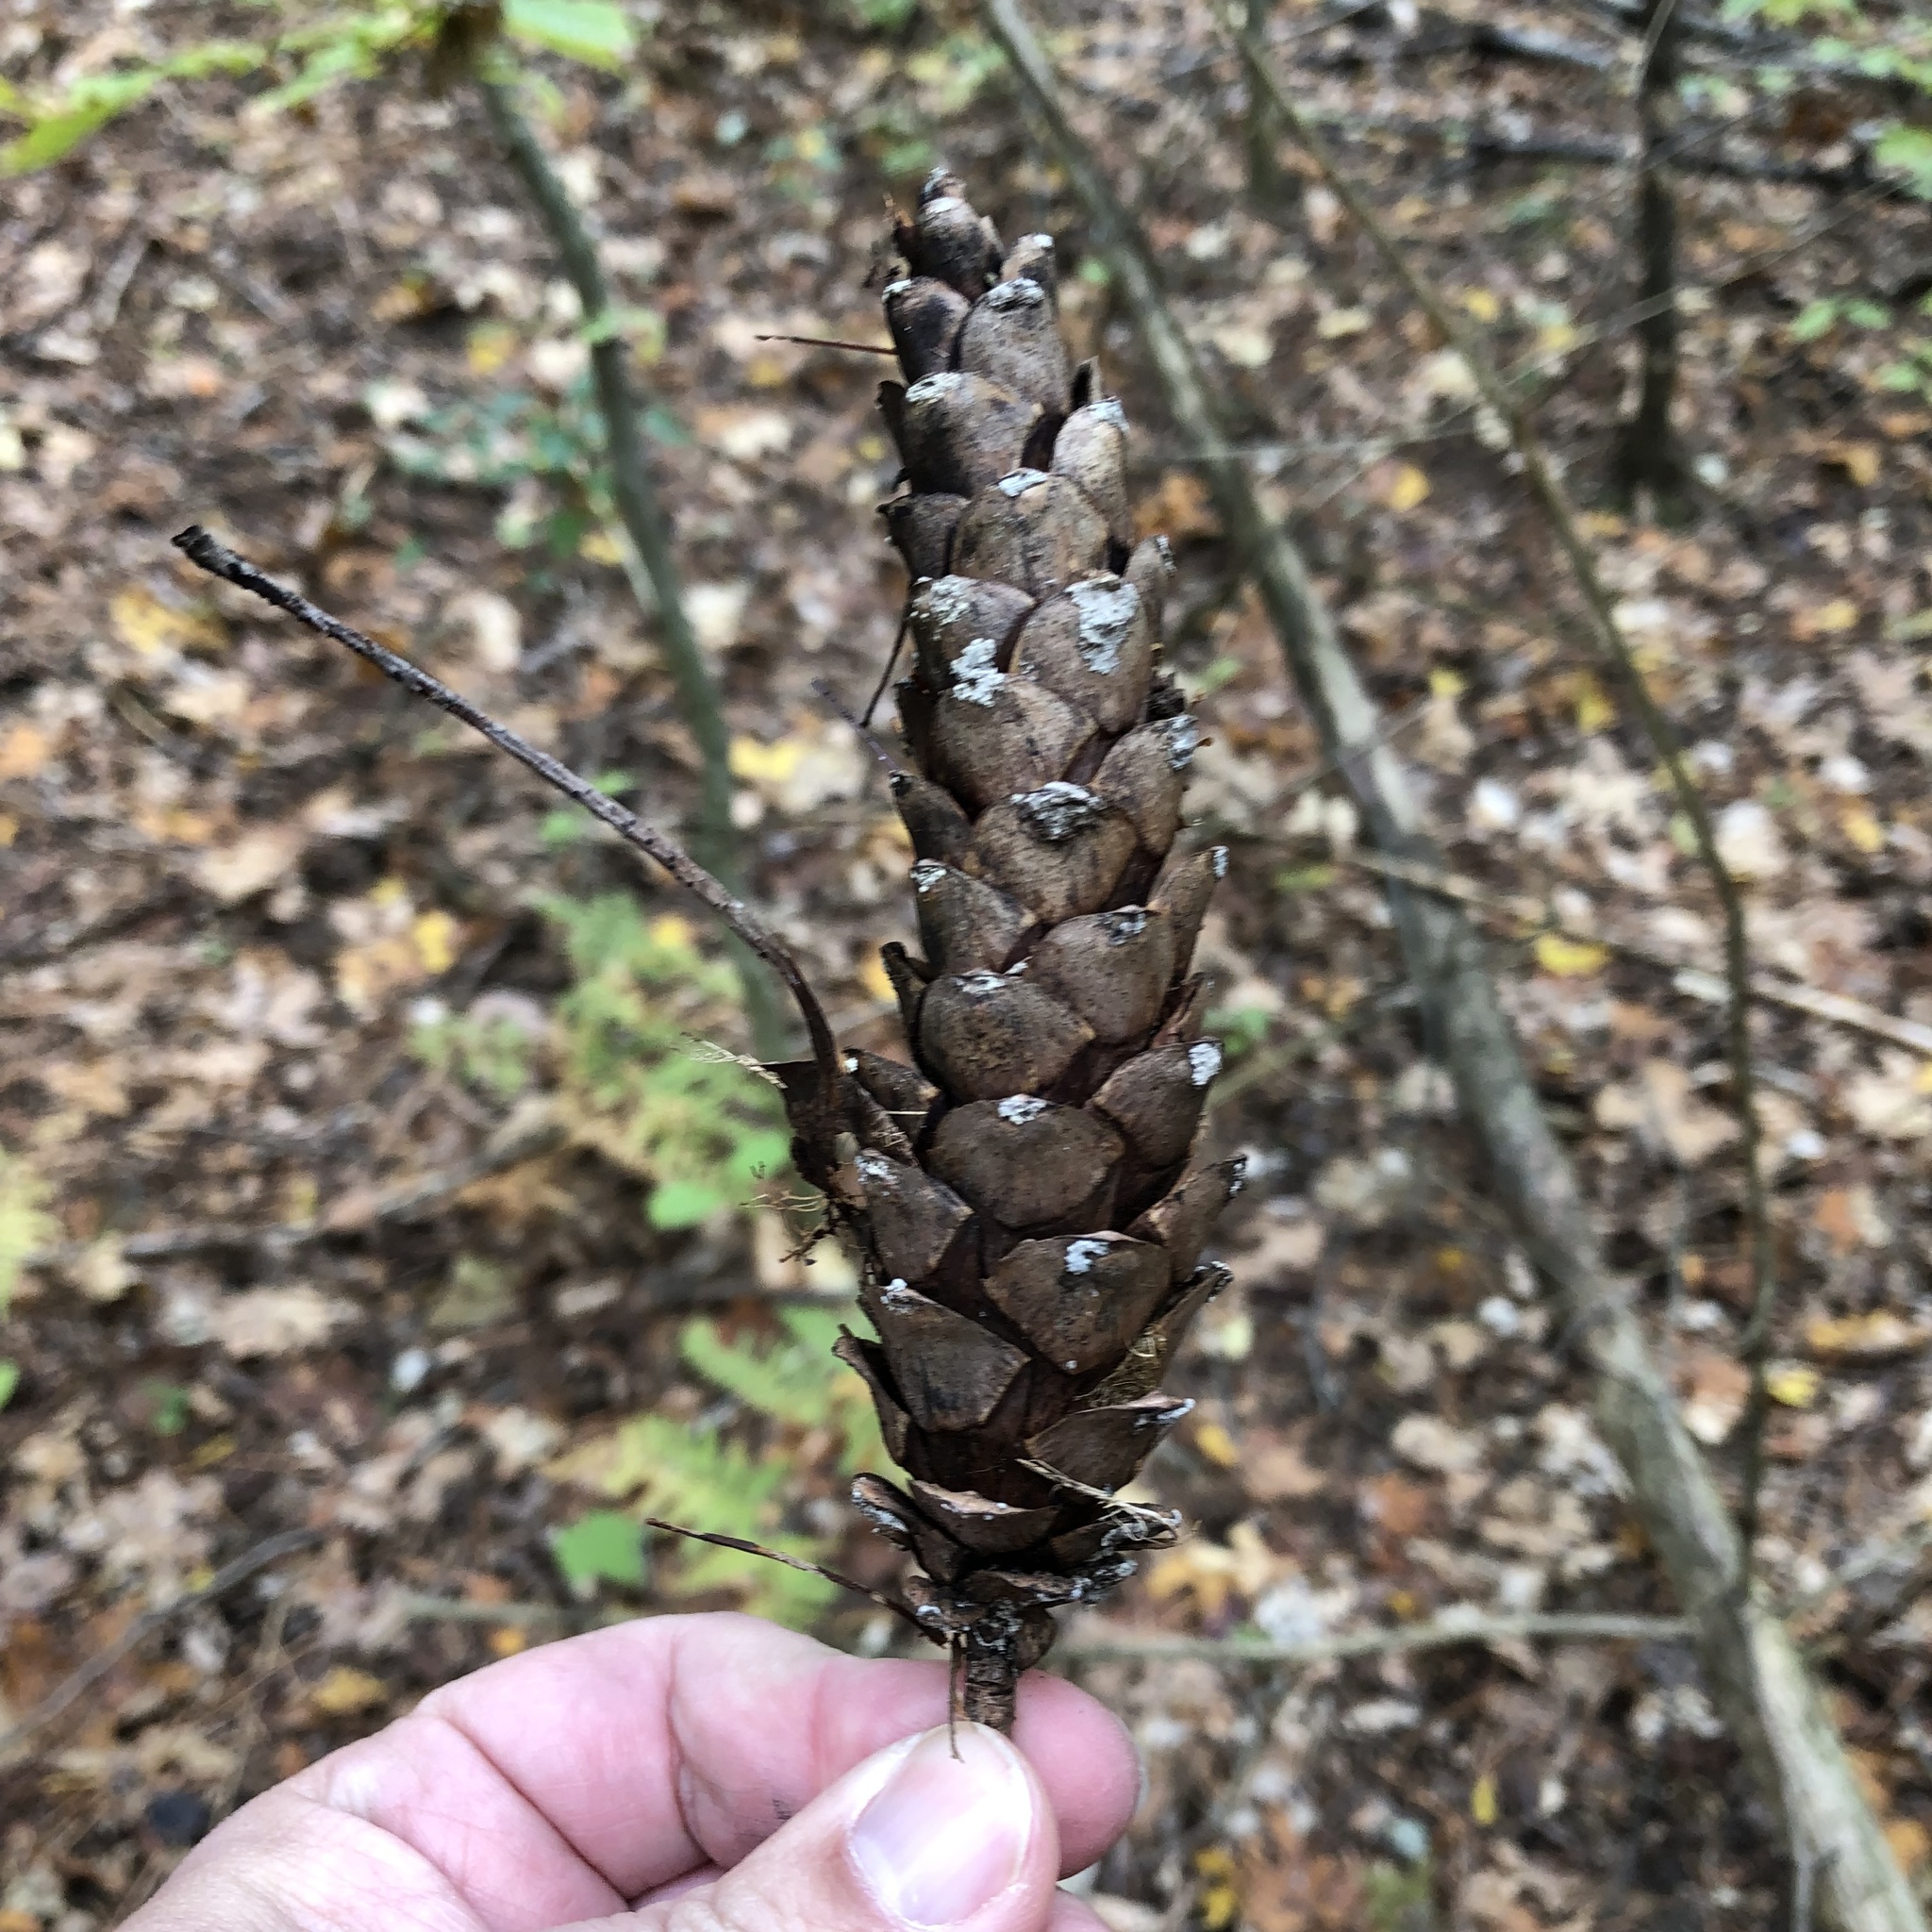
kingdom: Plantae
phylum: Tracheophyta
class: Pinopsida
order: Pinales
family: Pinaceae
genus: Pinus
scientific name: Pinus strobus
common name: Weymouth pine
